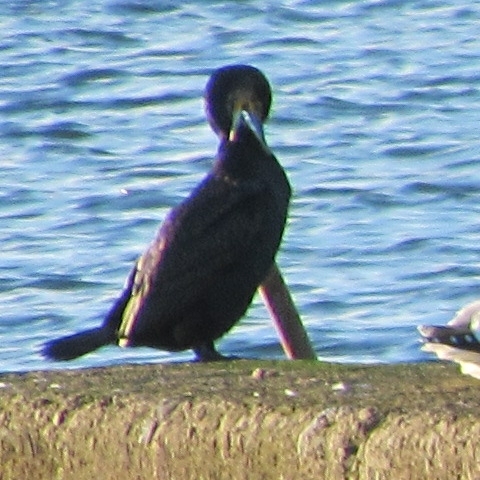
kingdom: Animalia
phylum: Chordata
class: Aves
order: Suliformes
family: Phalacrocoracidae
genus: Phalacrocorax
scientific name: Phalacrocorax carbo
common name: Great cormorant
